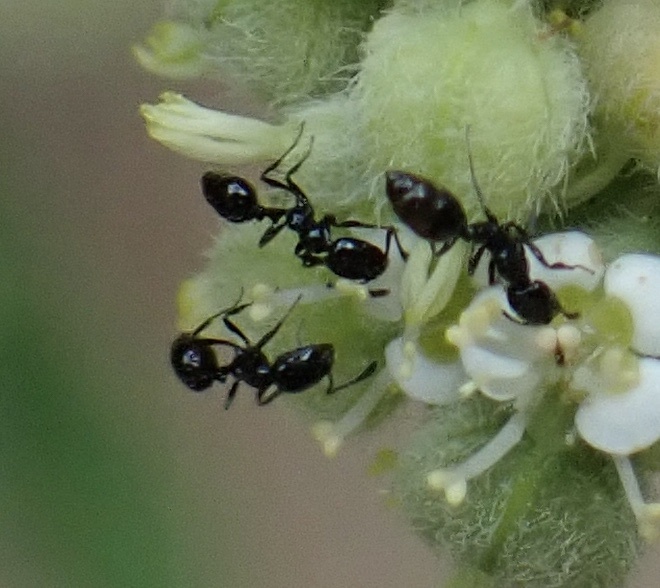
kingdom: Animalia
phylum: Arthropoda
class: Insecta
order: Hymenoptera
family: Formicidae
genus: Monomorium
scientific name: Monomorium ebeninum
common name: Ant
